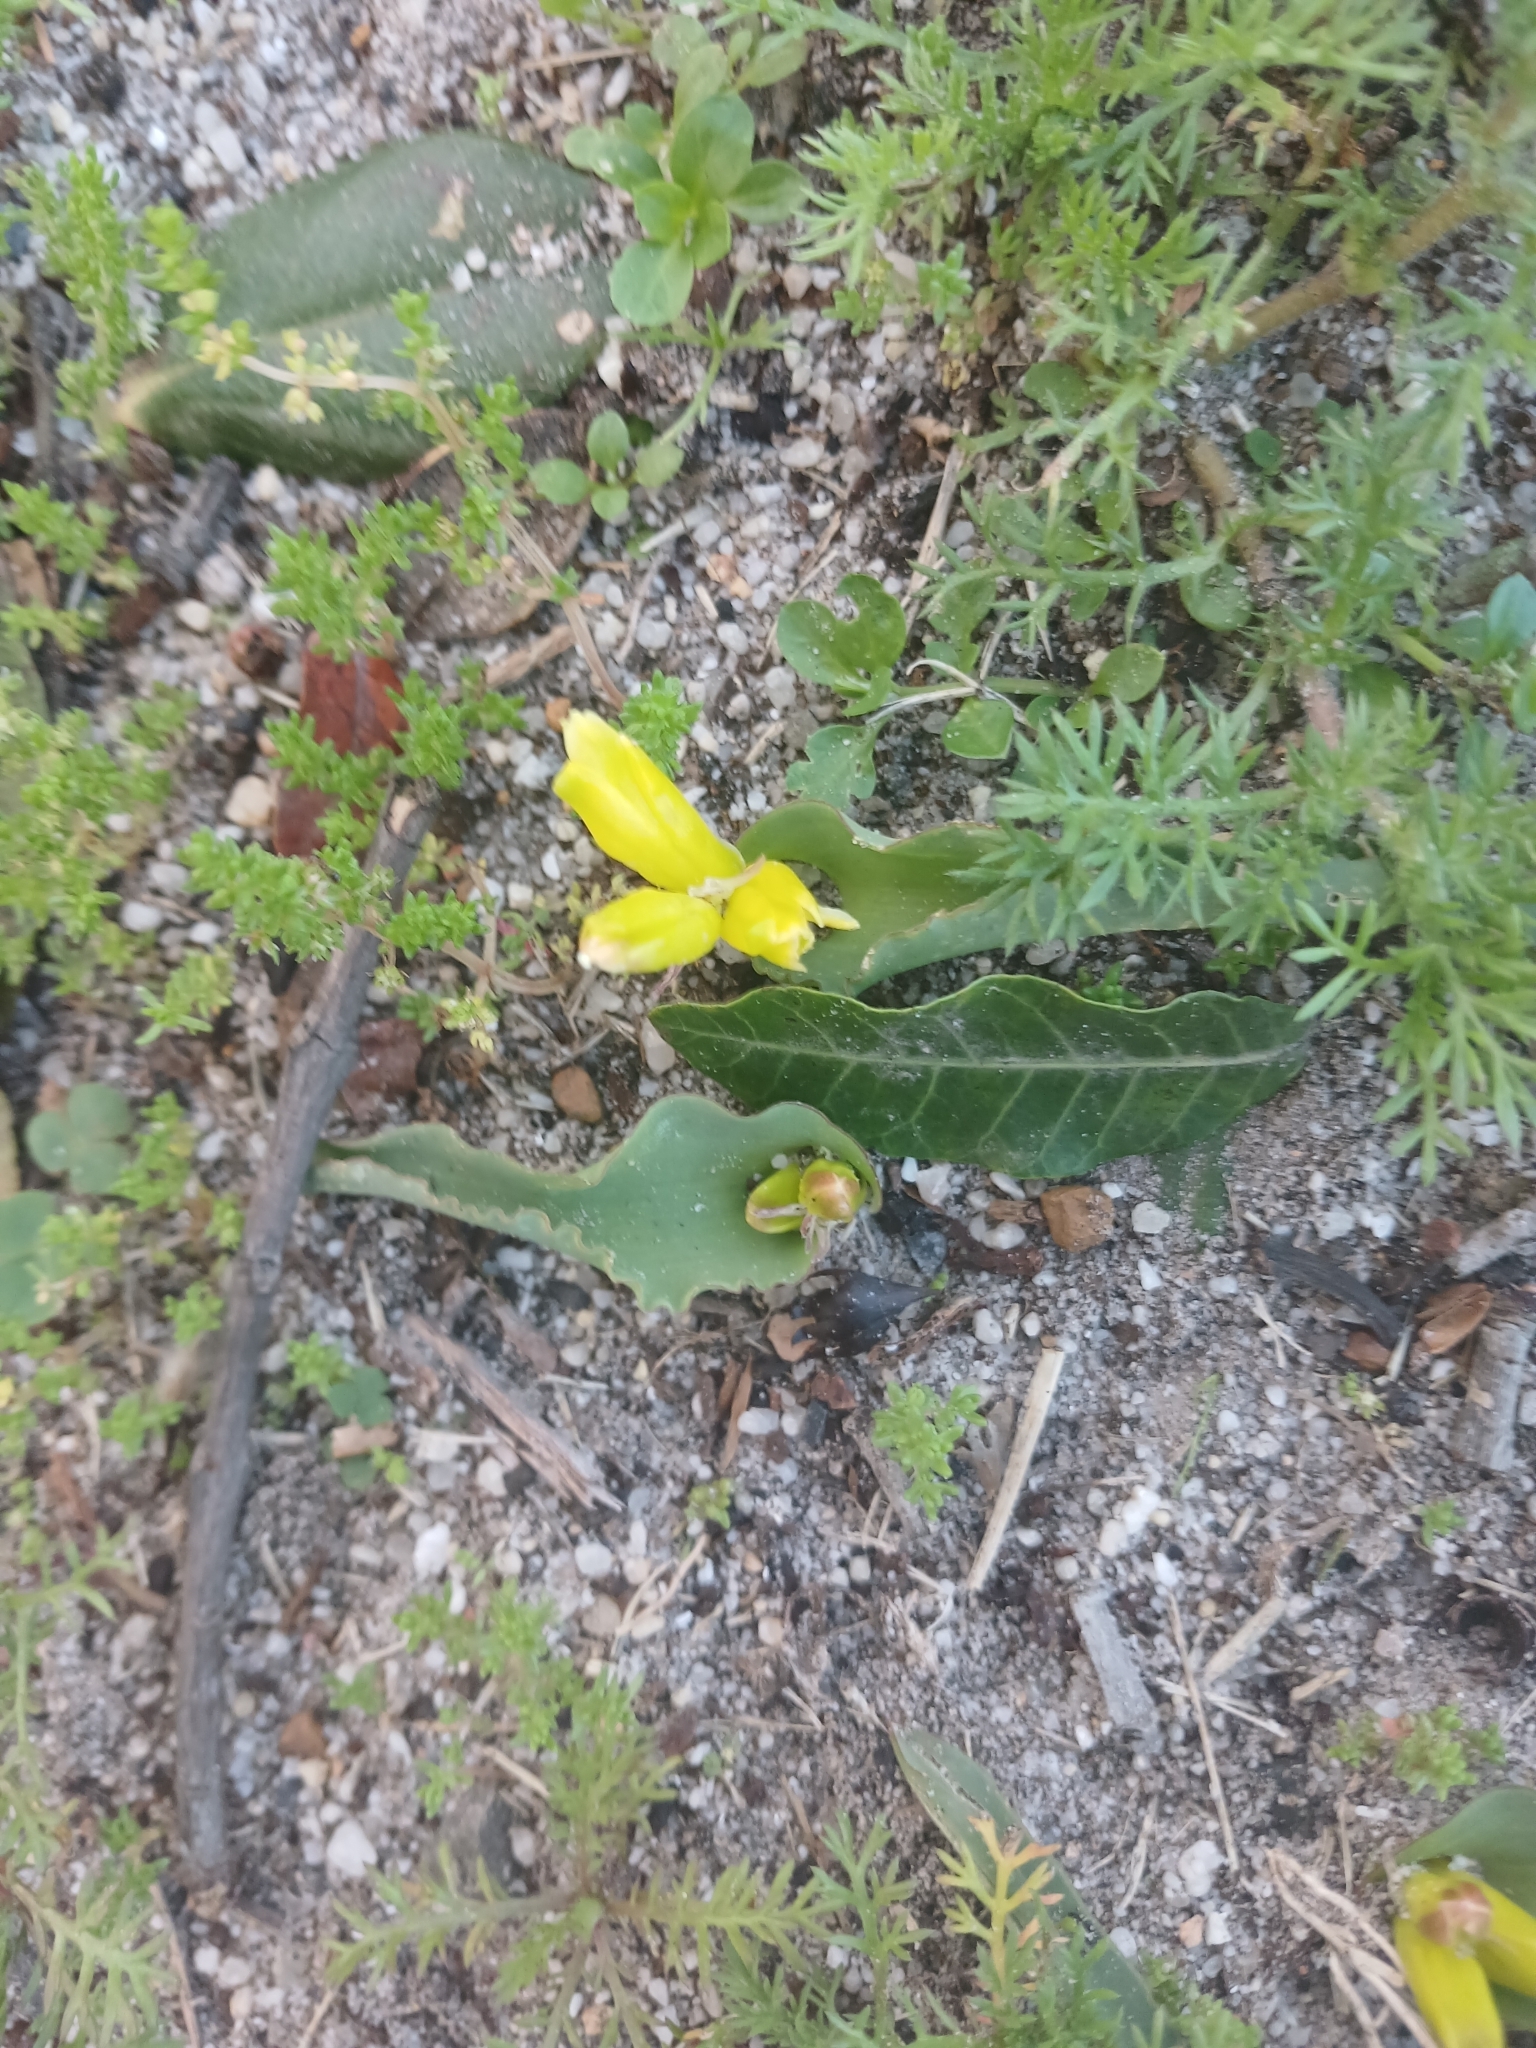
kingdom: Plantae
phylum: Tracheophyta
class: Liliopsida
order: Asparagales
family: Asparagaceae
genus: Lachenalia
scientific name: Lachenalia reflexa
